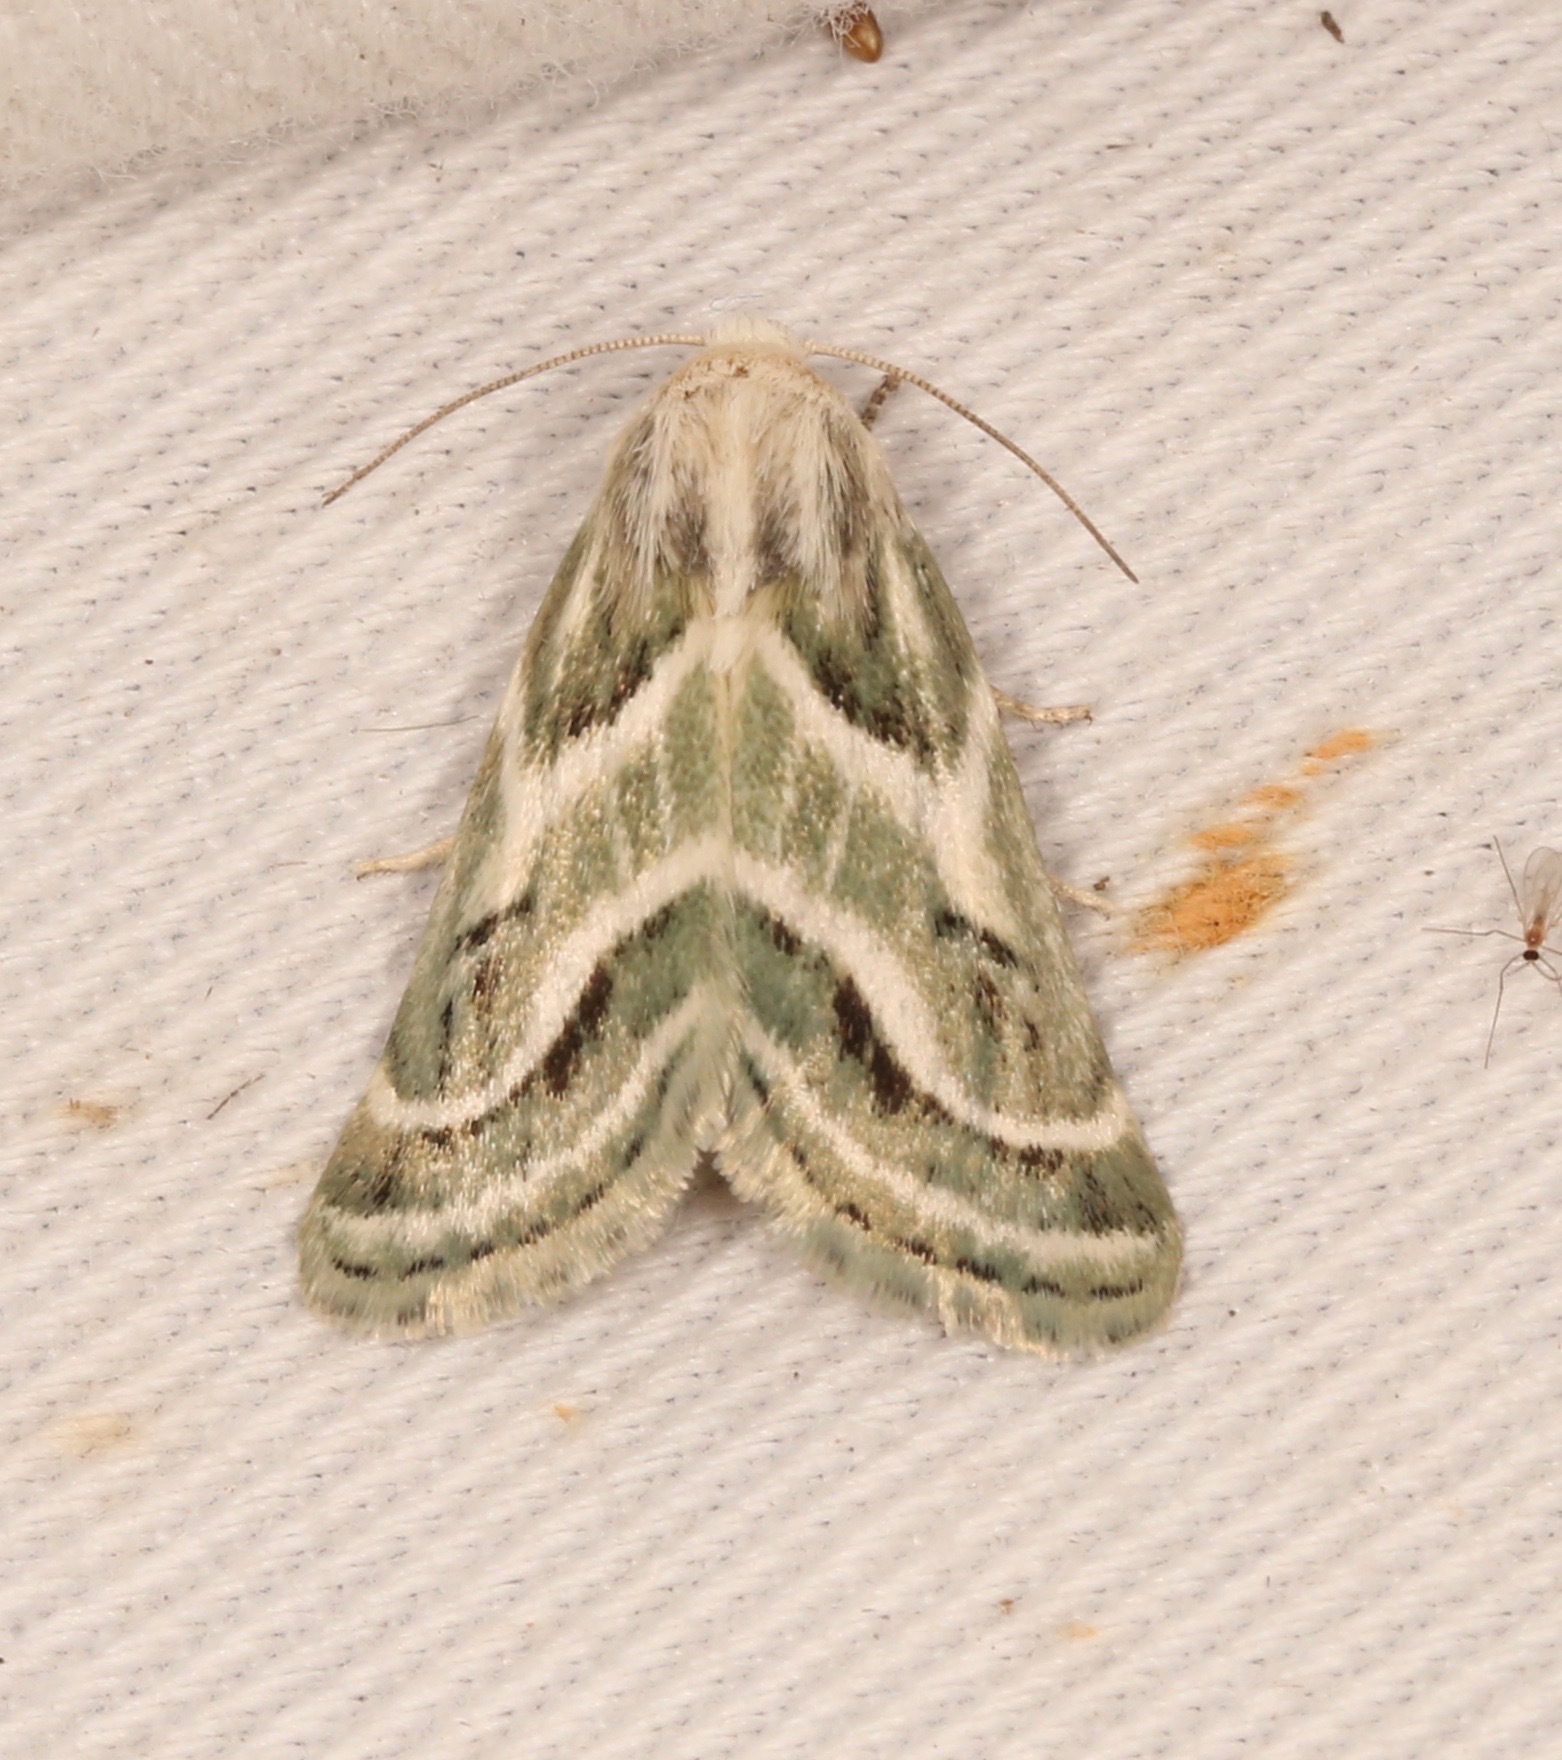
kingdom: Animalia
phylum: Arthropoda
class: Insecta
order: Lepidoptera
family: Noctuidae
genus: Schinia
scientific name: Schinia accessa
